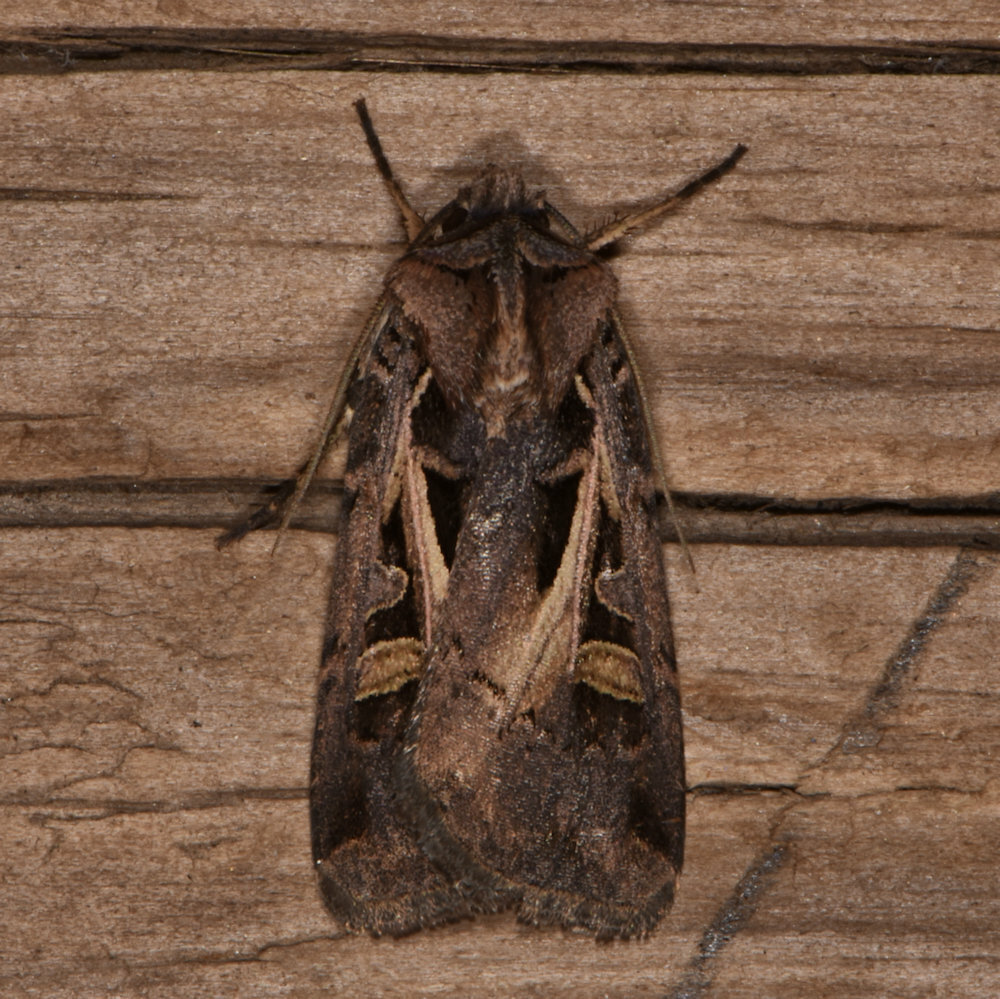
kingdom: Animalia
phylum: Arthropoda
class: Insecta
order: Lepidoptera
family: Noctuidae
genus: Feltia
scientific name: Feltia herilis
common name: Master's dart
